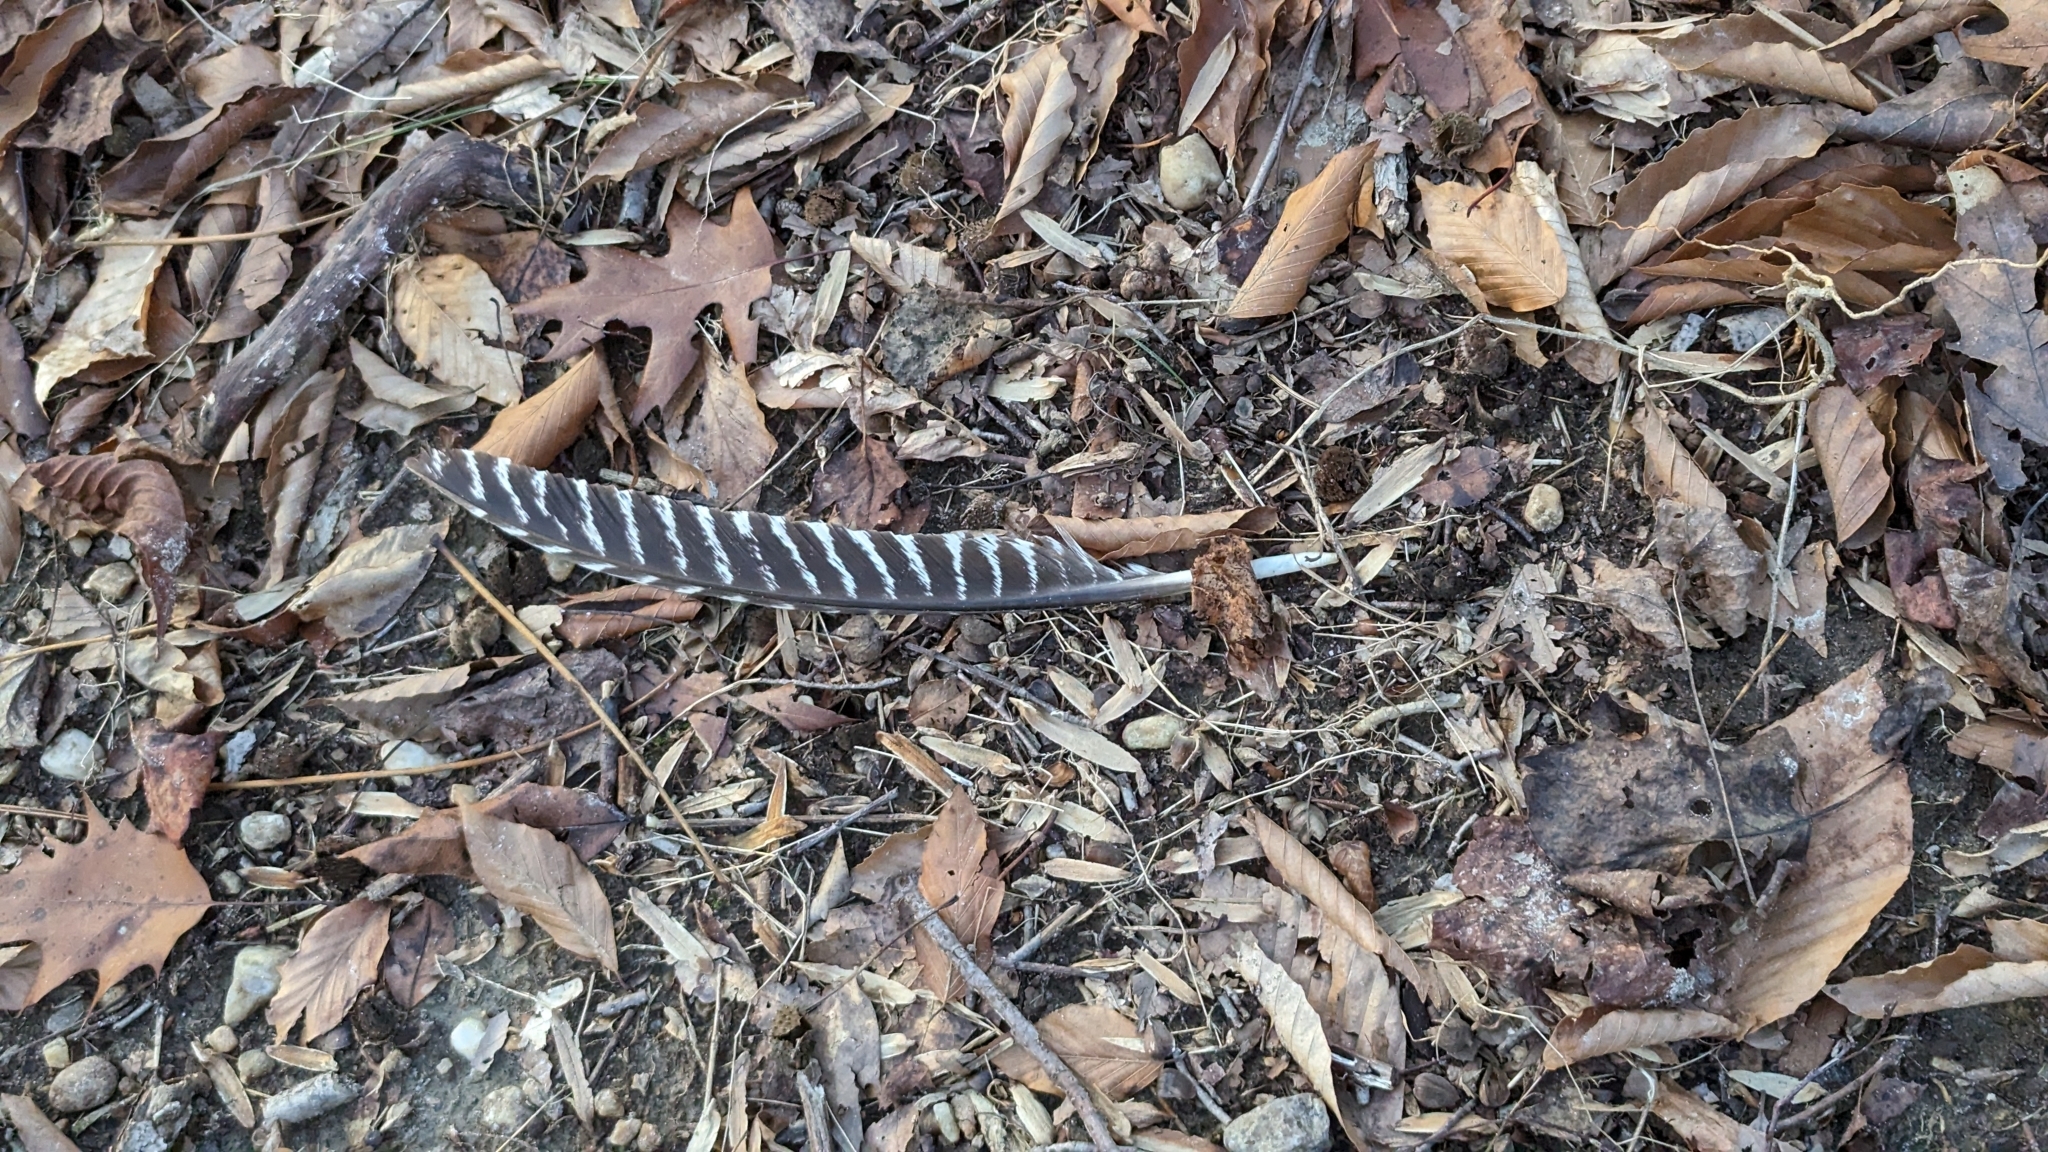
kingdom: Animalia
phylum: Chordata
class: Aves
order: Galliformes
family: Phasianidae
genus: Meleagris
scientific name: Meleagris gallopavo
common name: Wild turkey
